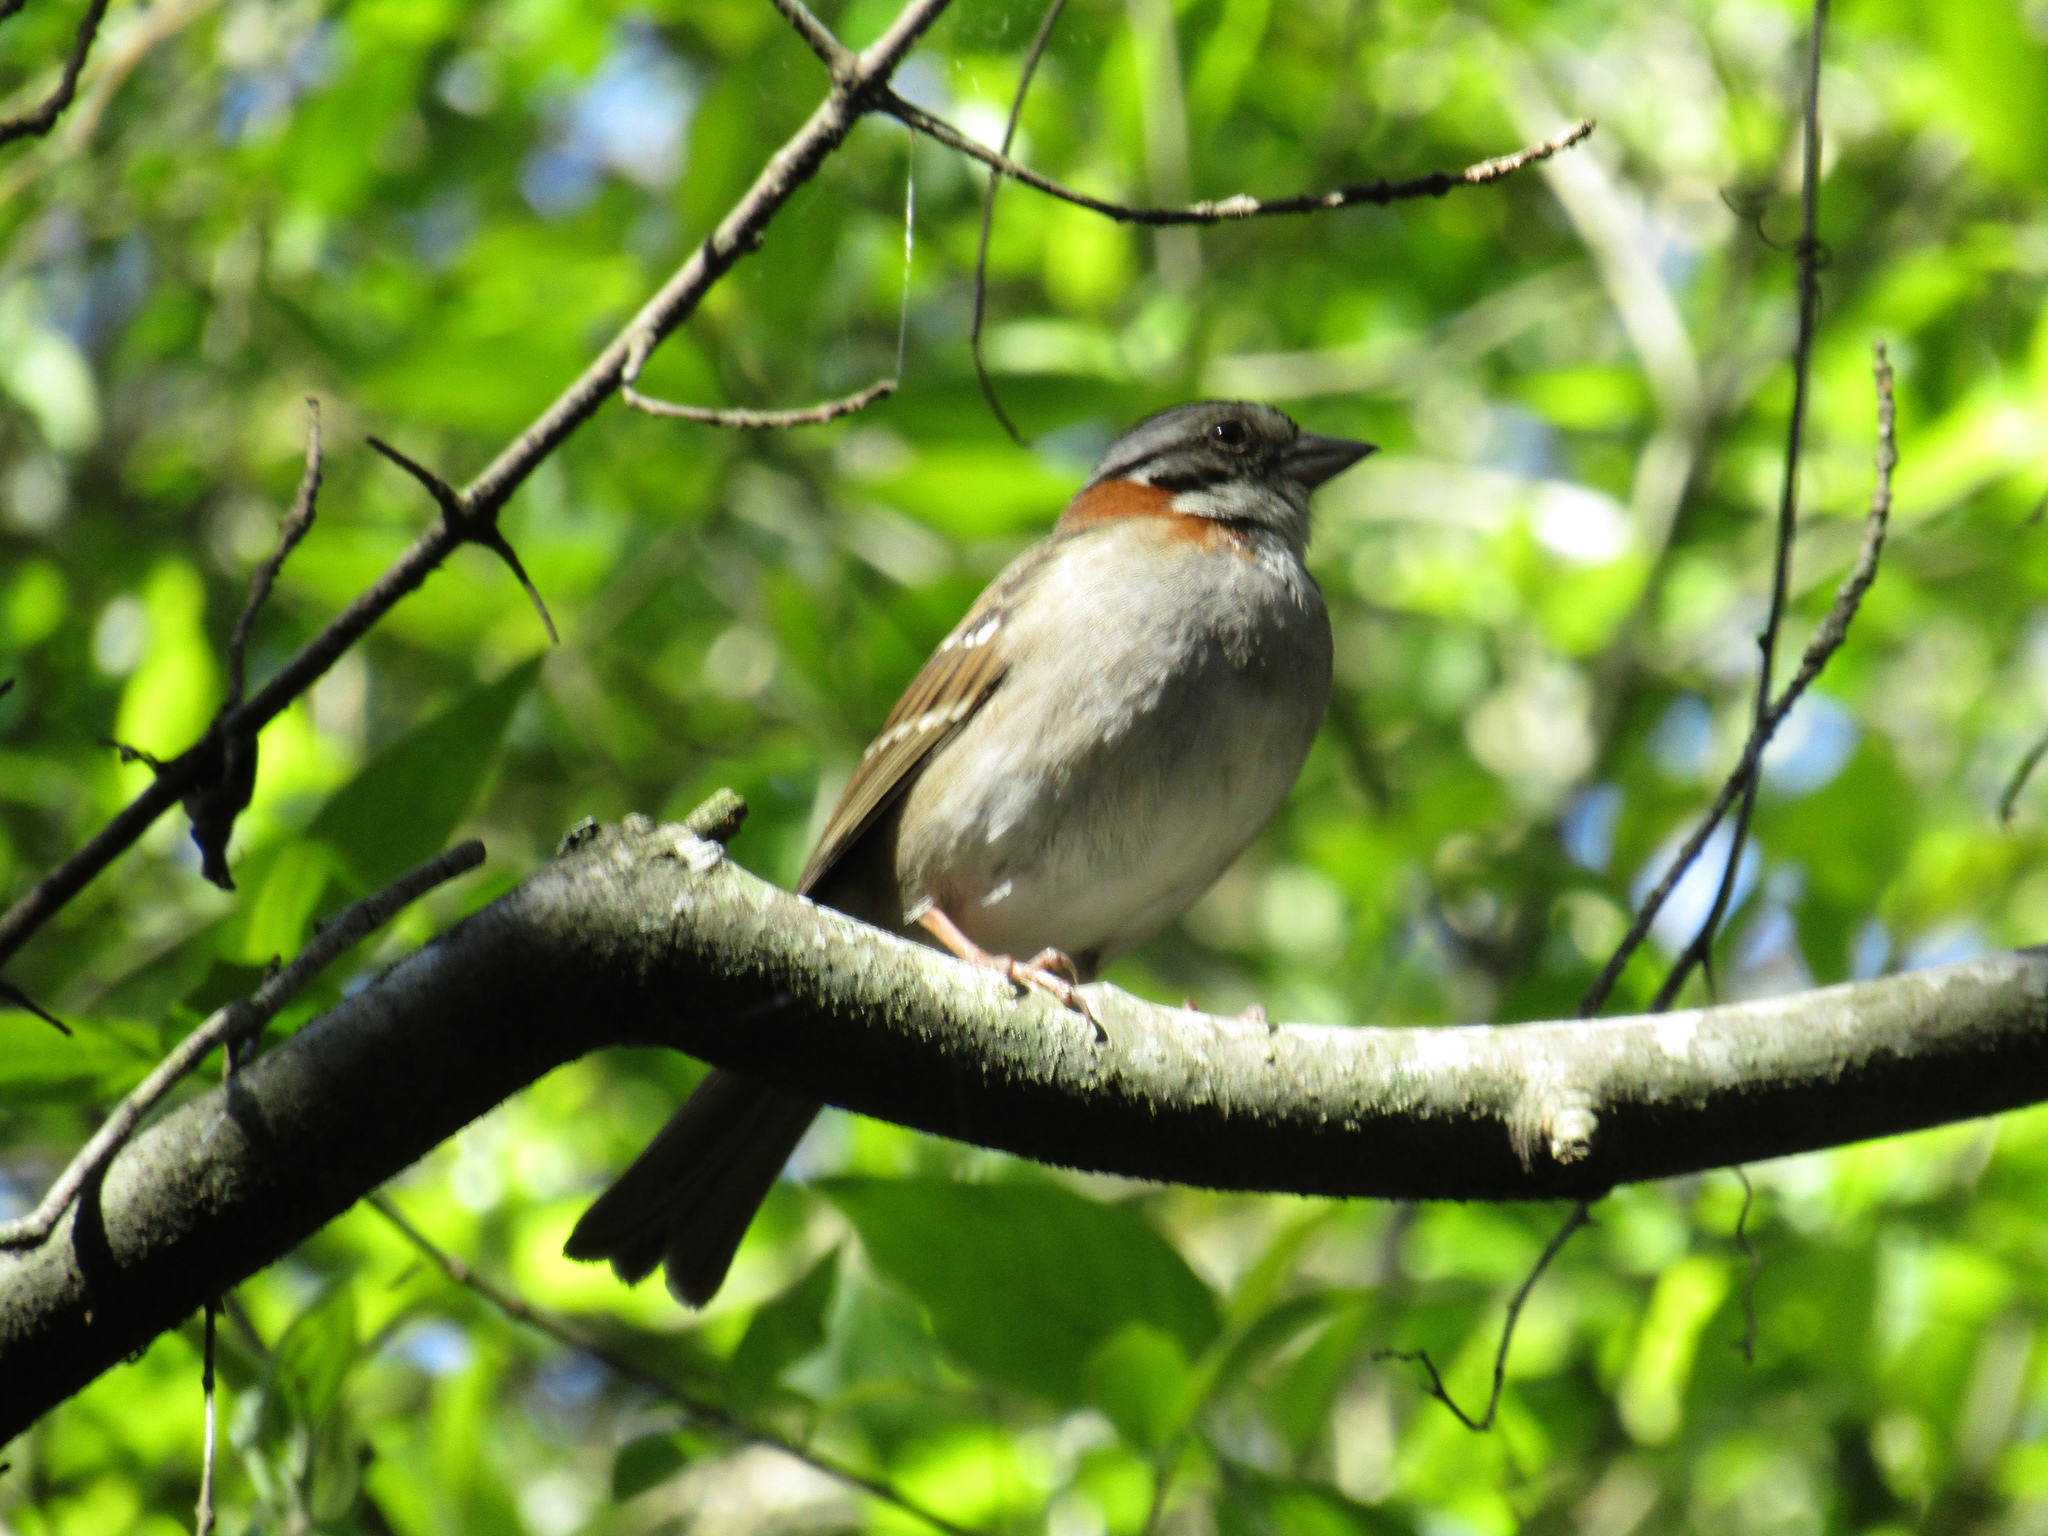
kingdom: Animalia
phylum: Chordata
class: Aves
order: Passeriformes
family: Passerellidae
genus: Zonotrichia
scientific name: Zonotrichia capensis
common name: Rufous-collared sparrow
